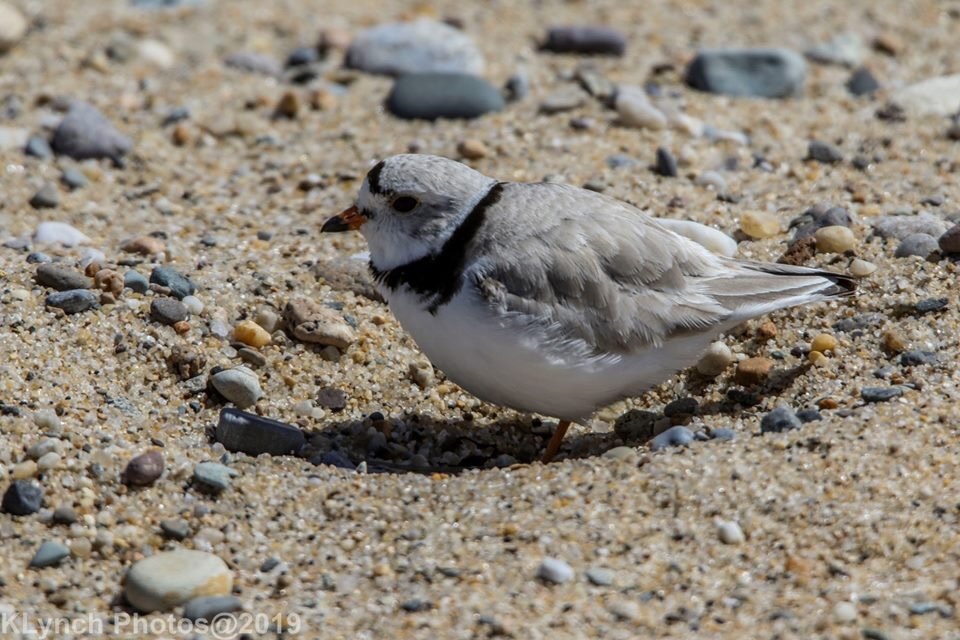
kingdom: Animalia
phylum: Chordata
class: Aves
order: Charadriiformes
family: Charadriidae
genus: Charadrius
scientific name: Charadrius melodus
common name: Piping plover
